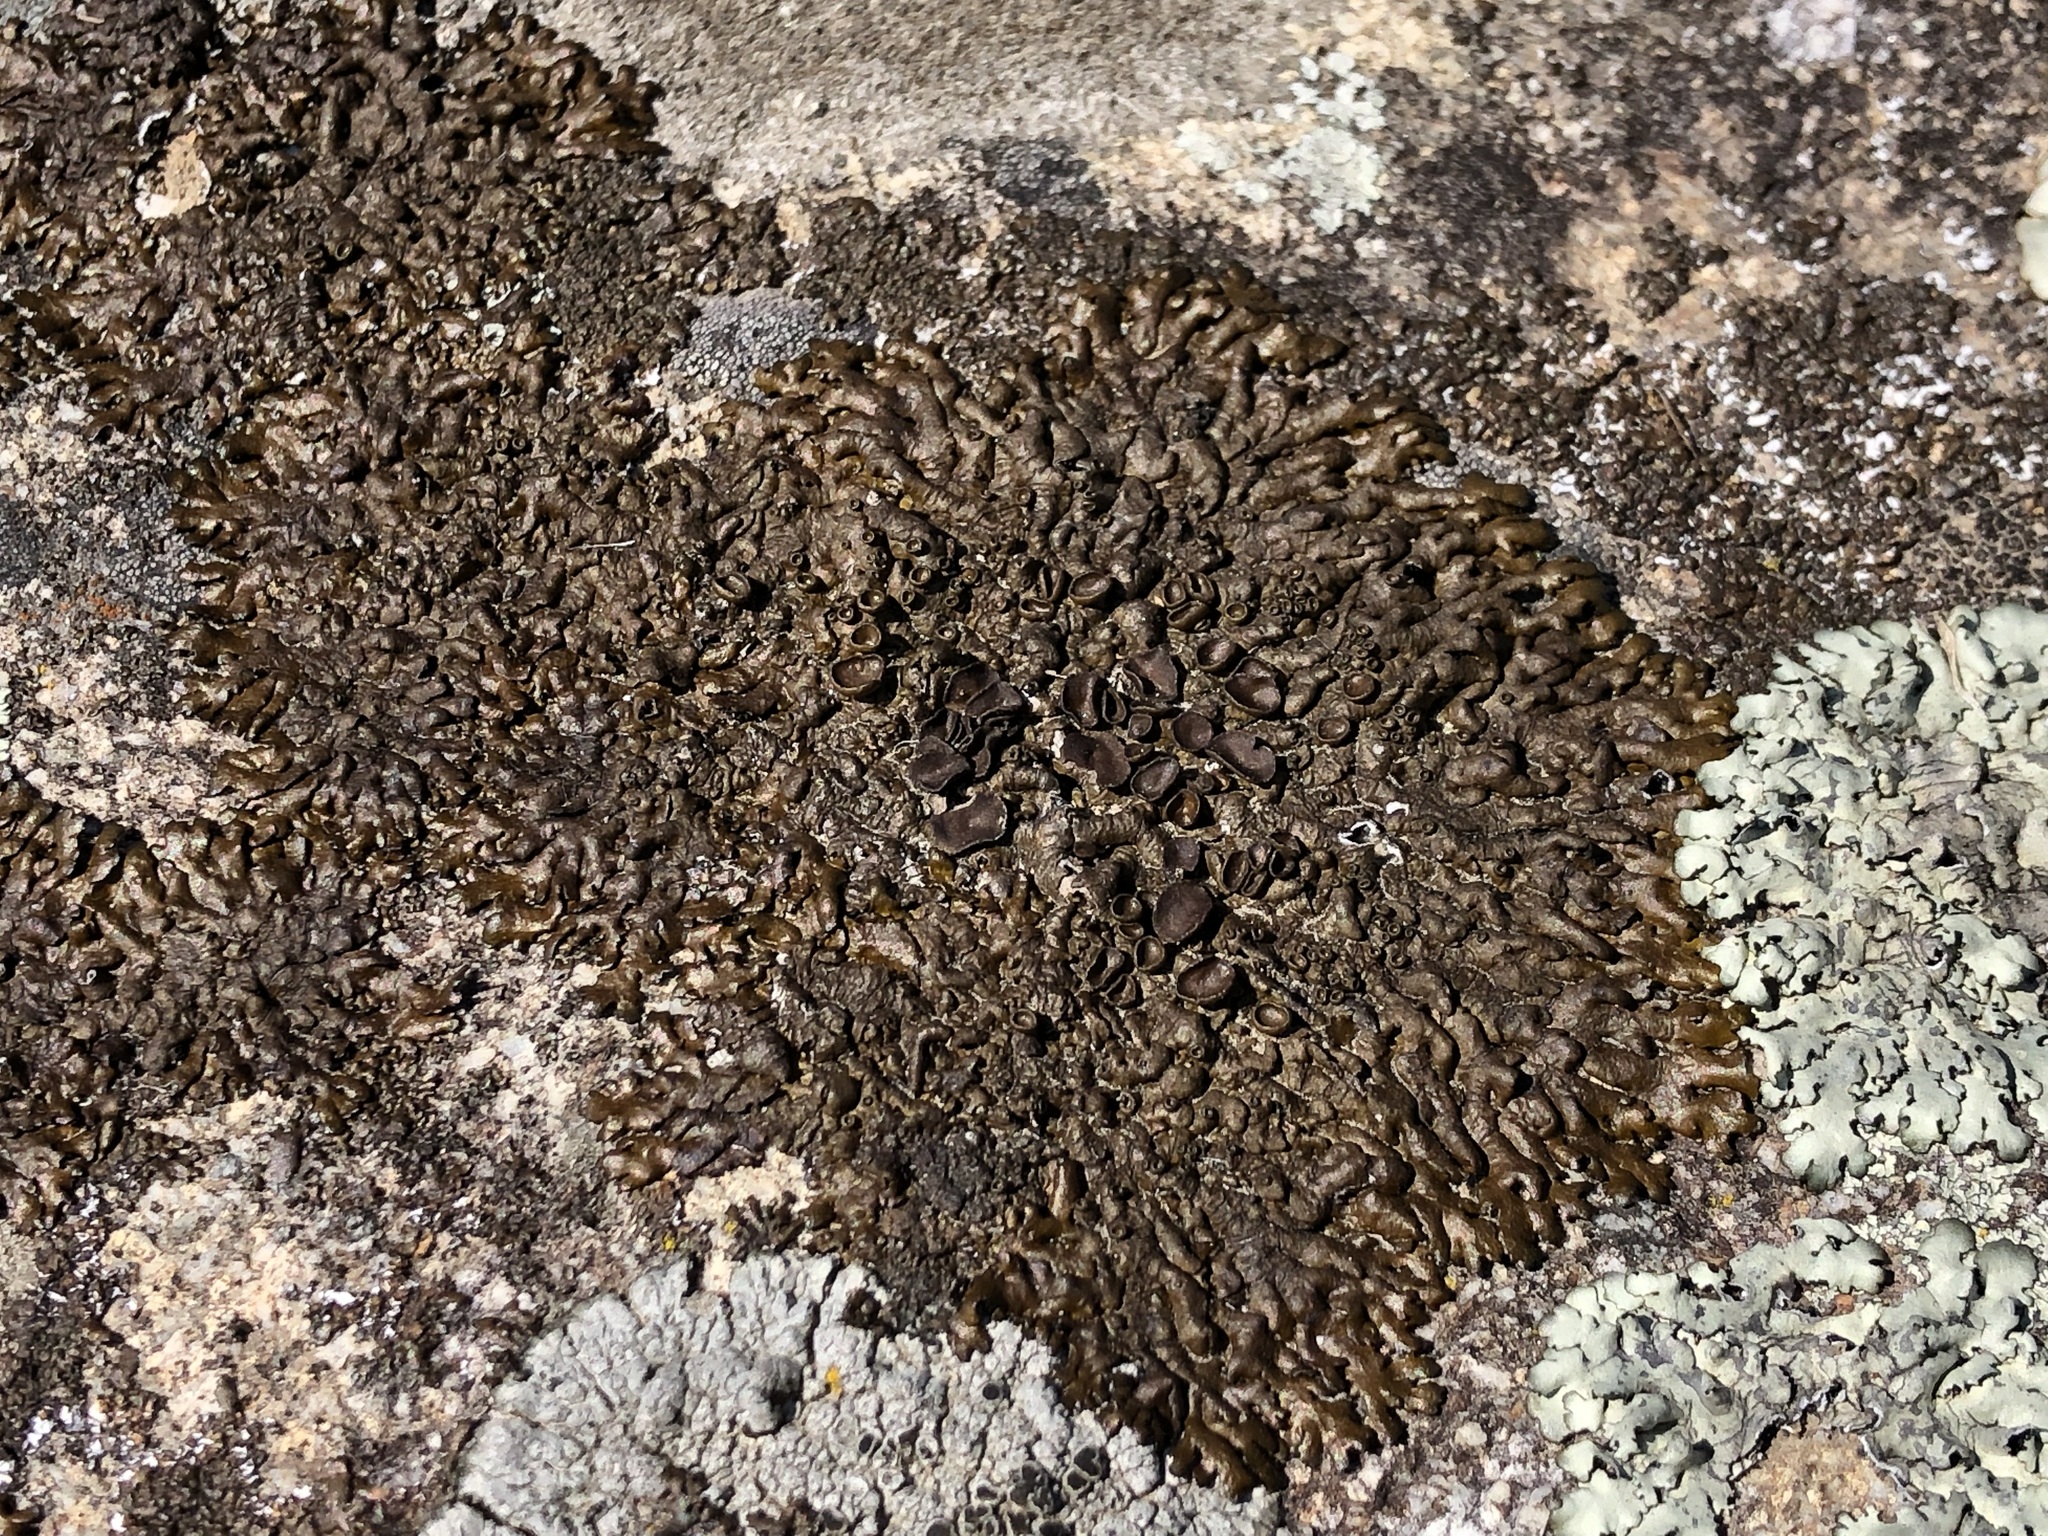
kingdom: Fungi
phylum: Ascomycota
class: Lecanoromycetes
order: Lecanorales
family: Parmeliaceae
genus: Xanthoparmelia
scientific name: Xanthoparmelia pulla
